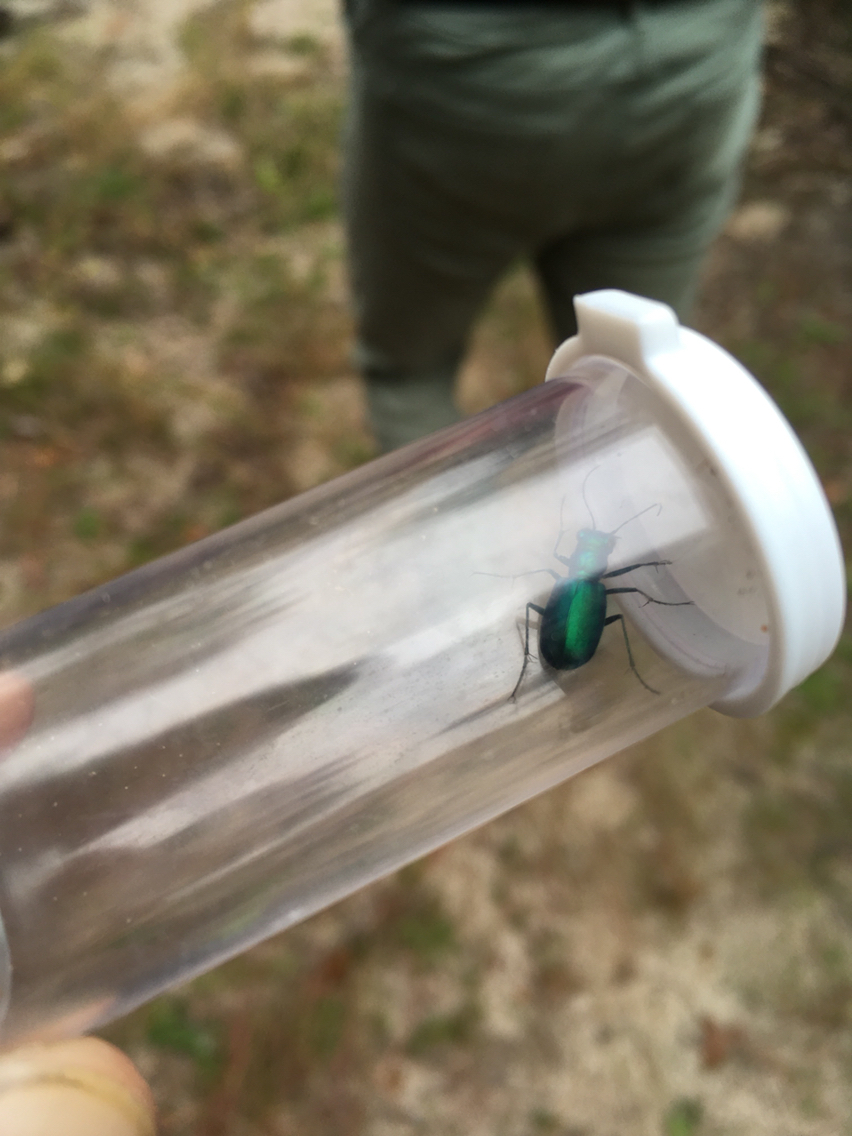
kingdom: Animalia
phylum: Arthropoda
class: Insecta
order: Coleoptera
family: Carabidae
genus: Cicindela
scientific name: Cicindela scutellaris
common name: Festive tiger beetle
